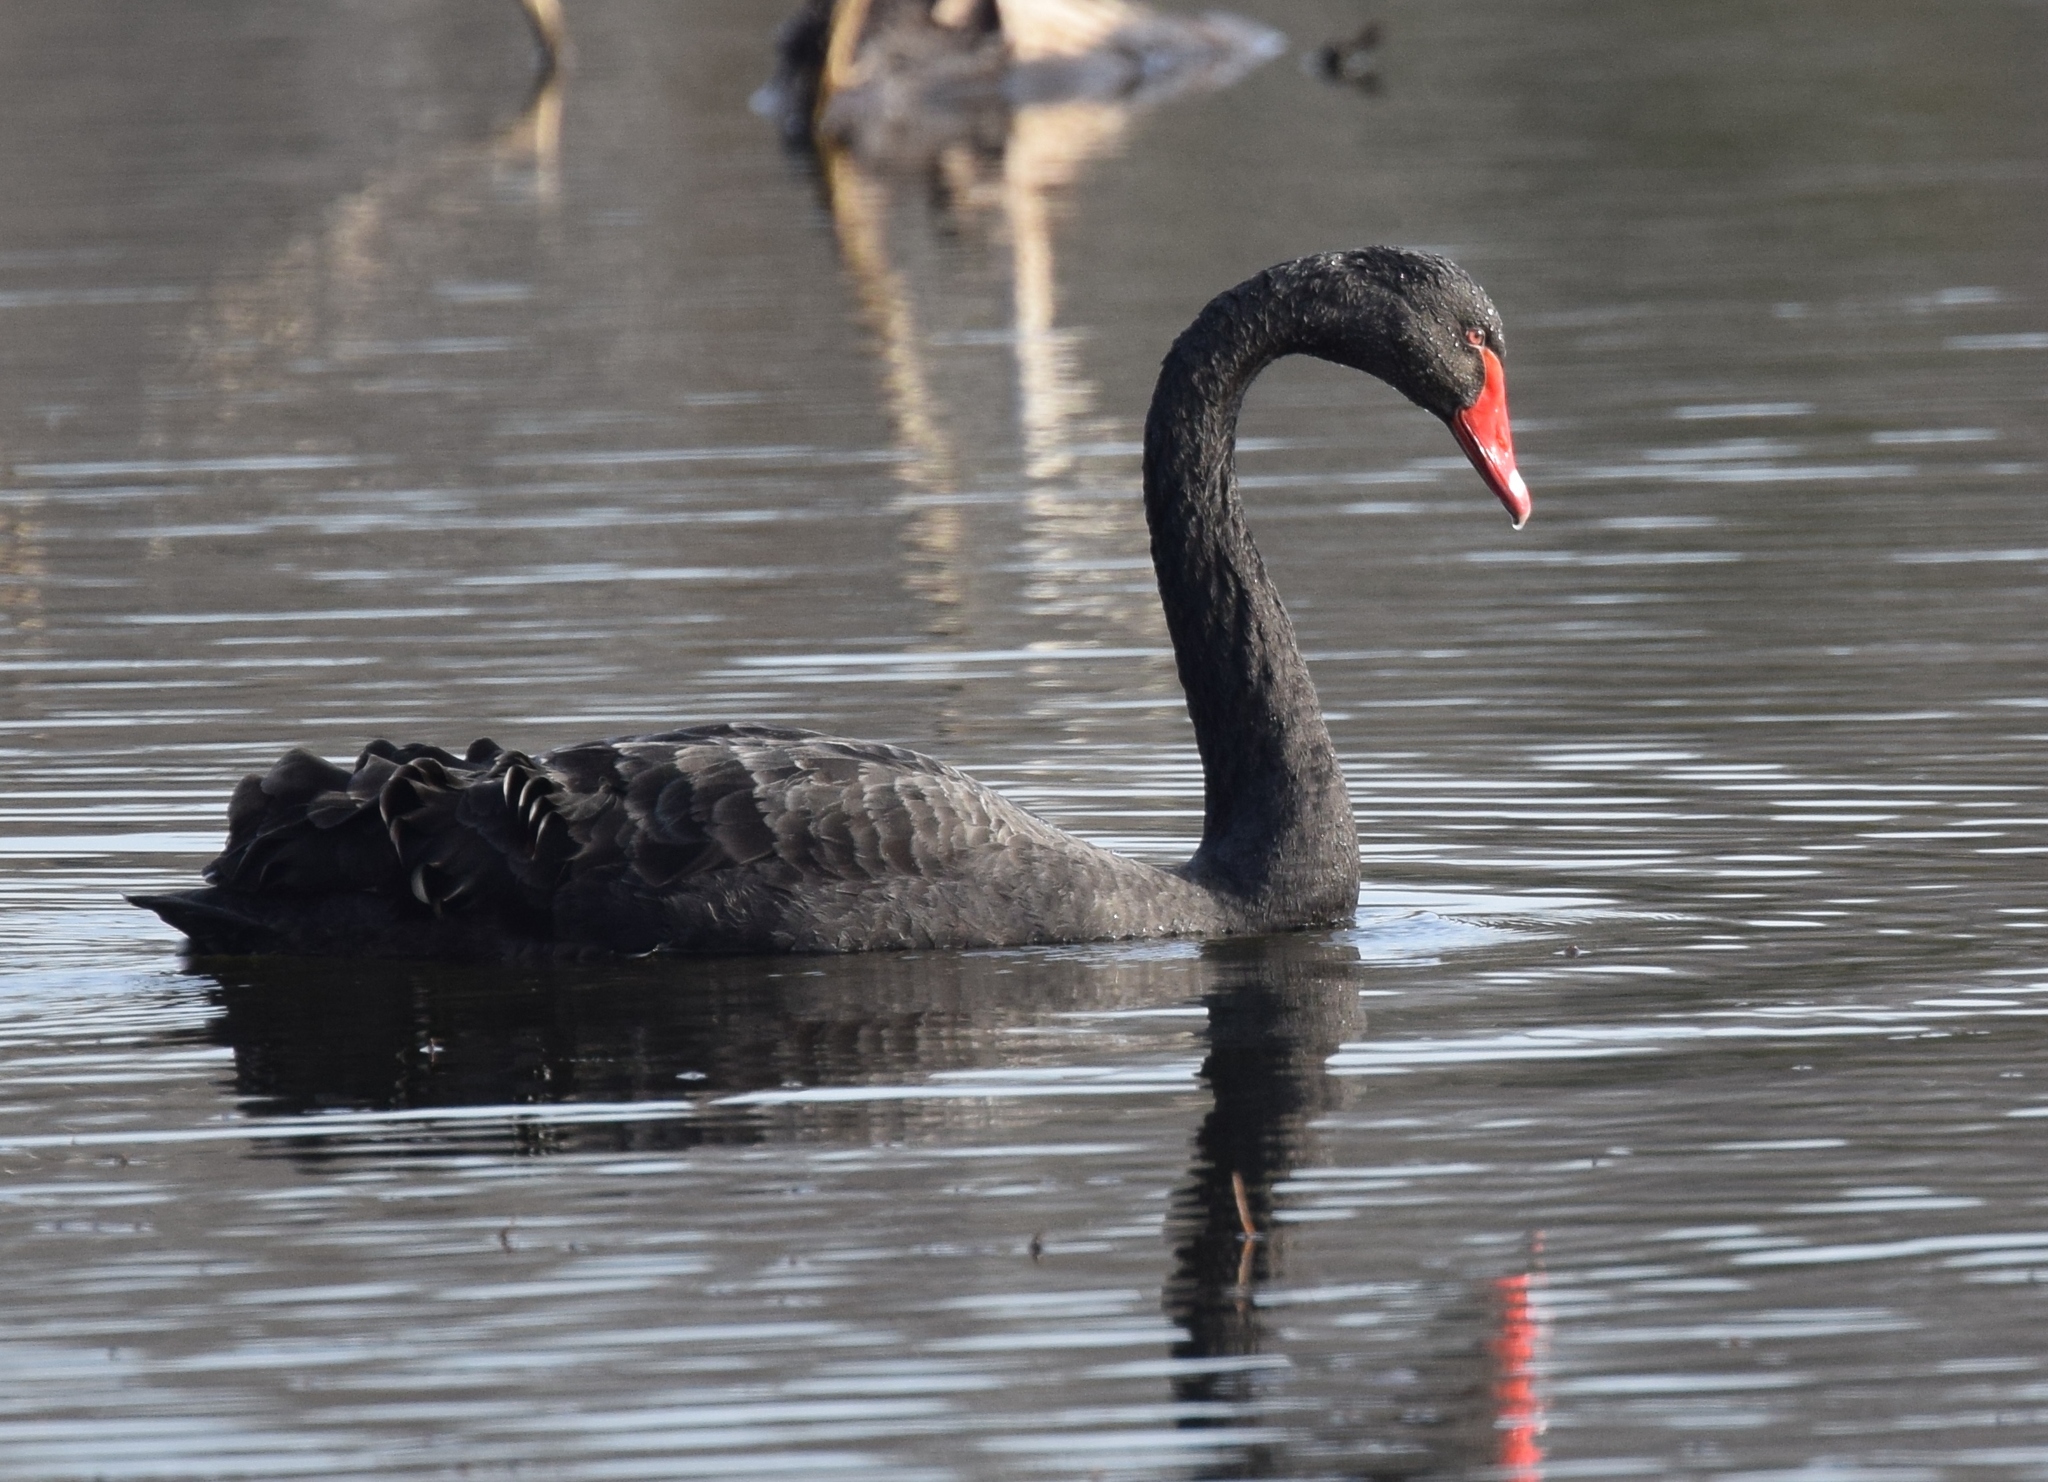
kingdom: Animalia
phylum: Chordata
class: Aves
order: Anseriformes
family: Anatidae
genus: Cygnus
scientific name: Cygnus atratus
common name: Black swan
